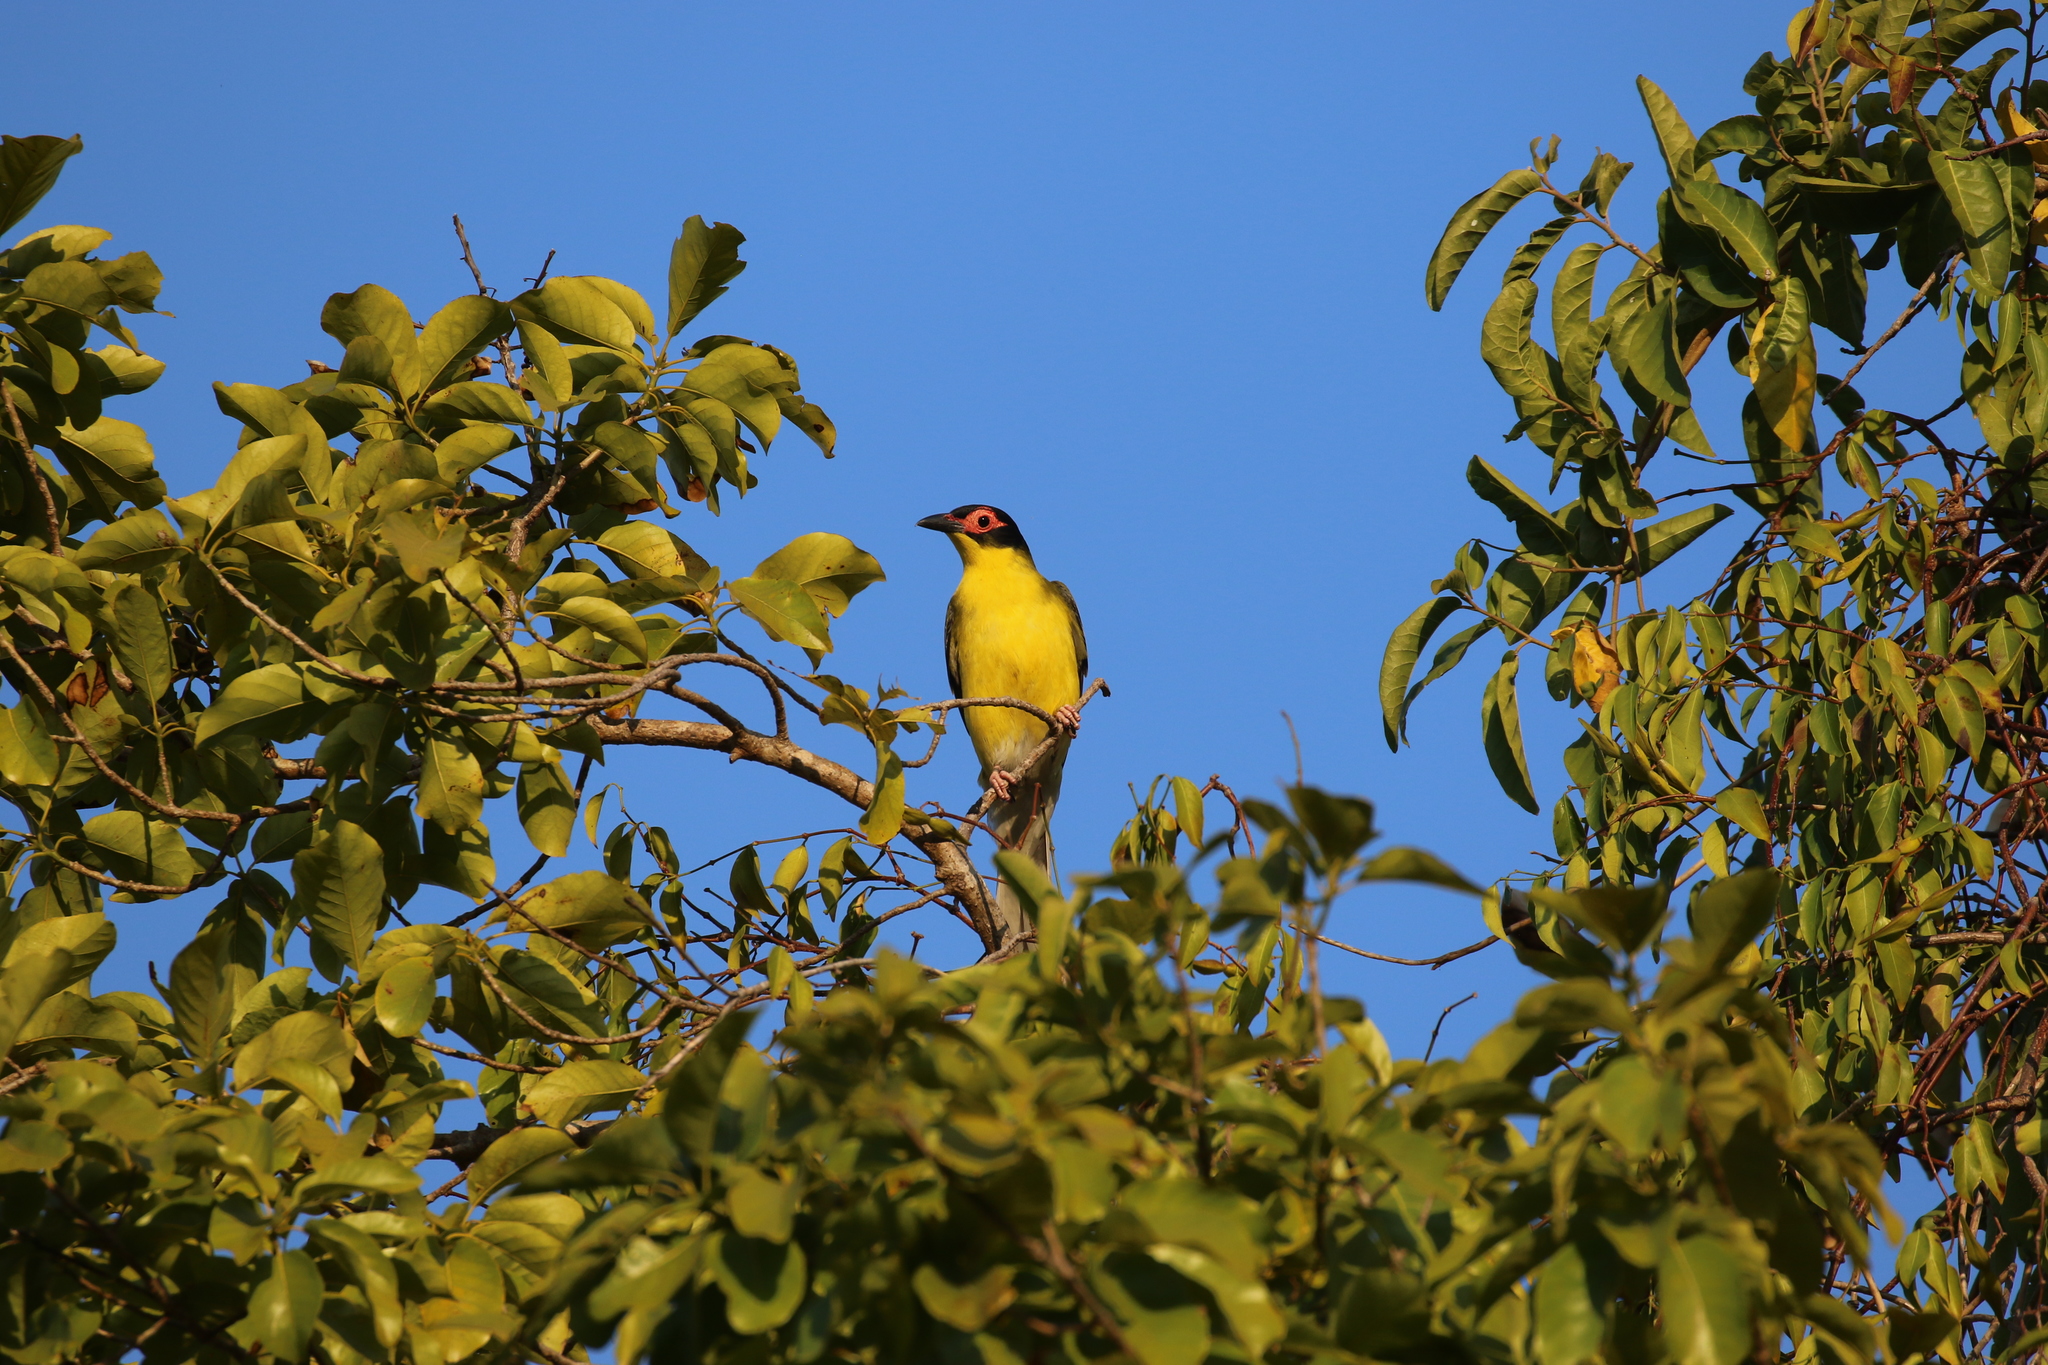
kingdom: Animalia
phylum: Chordata
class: Aves
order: Passeriformes
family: Oriolidae
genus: Sphecotheres
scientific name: Sphecotheres vieilloti
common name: Australasian figbird
